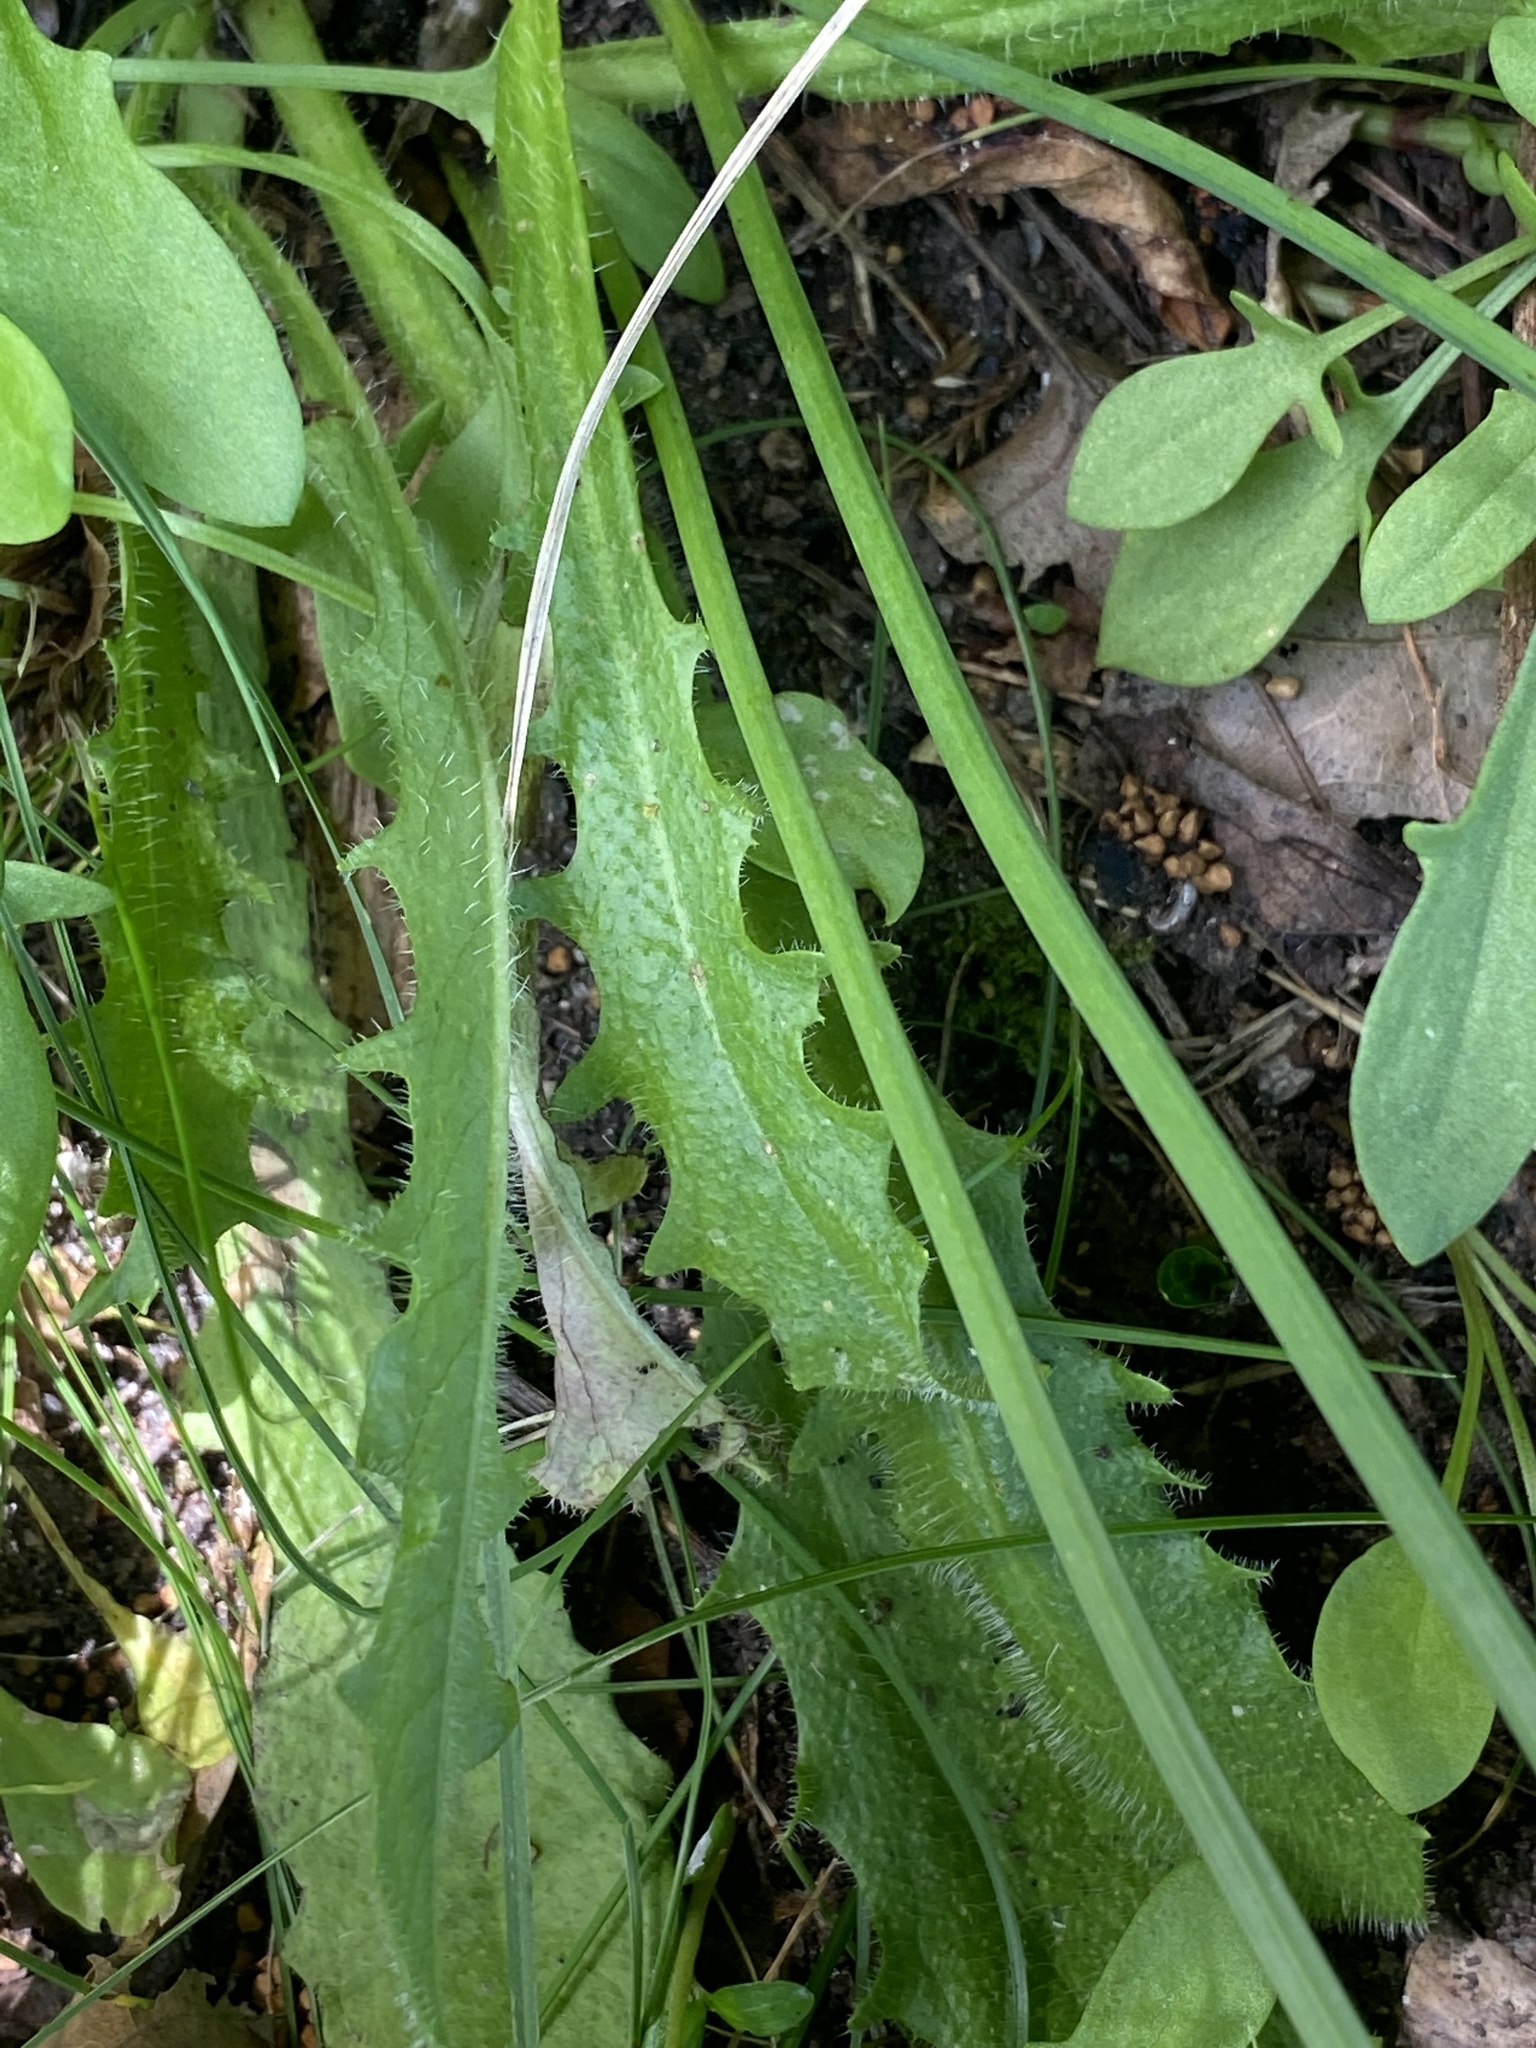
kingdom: Plantae
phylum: Tracheophyta
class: Magnoliopsida
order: Asterales
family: Asteraceae
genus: Hypochaeris
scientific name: Hypochaeris radicata
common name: Flatweed
